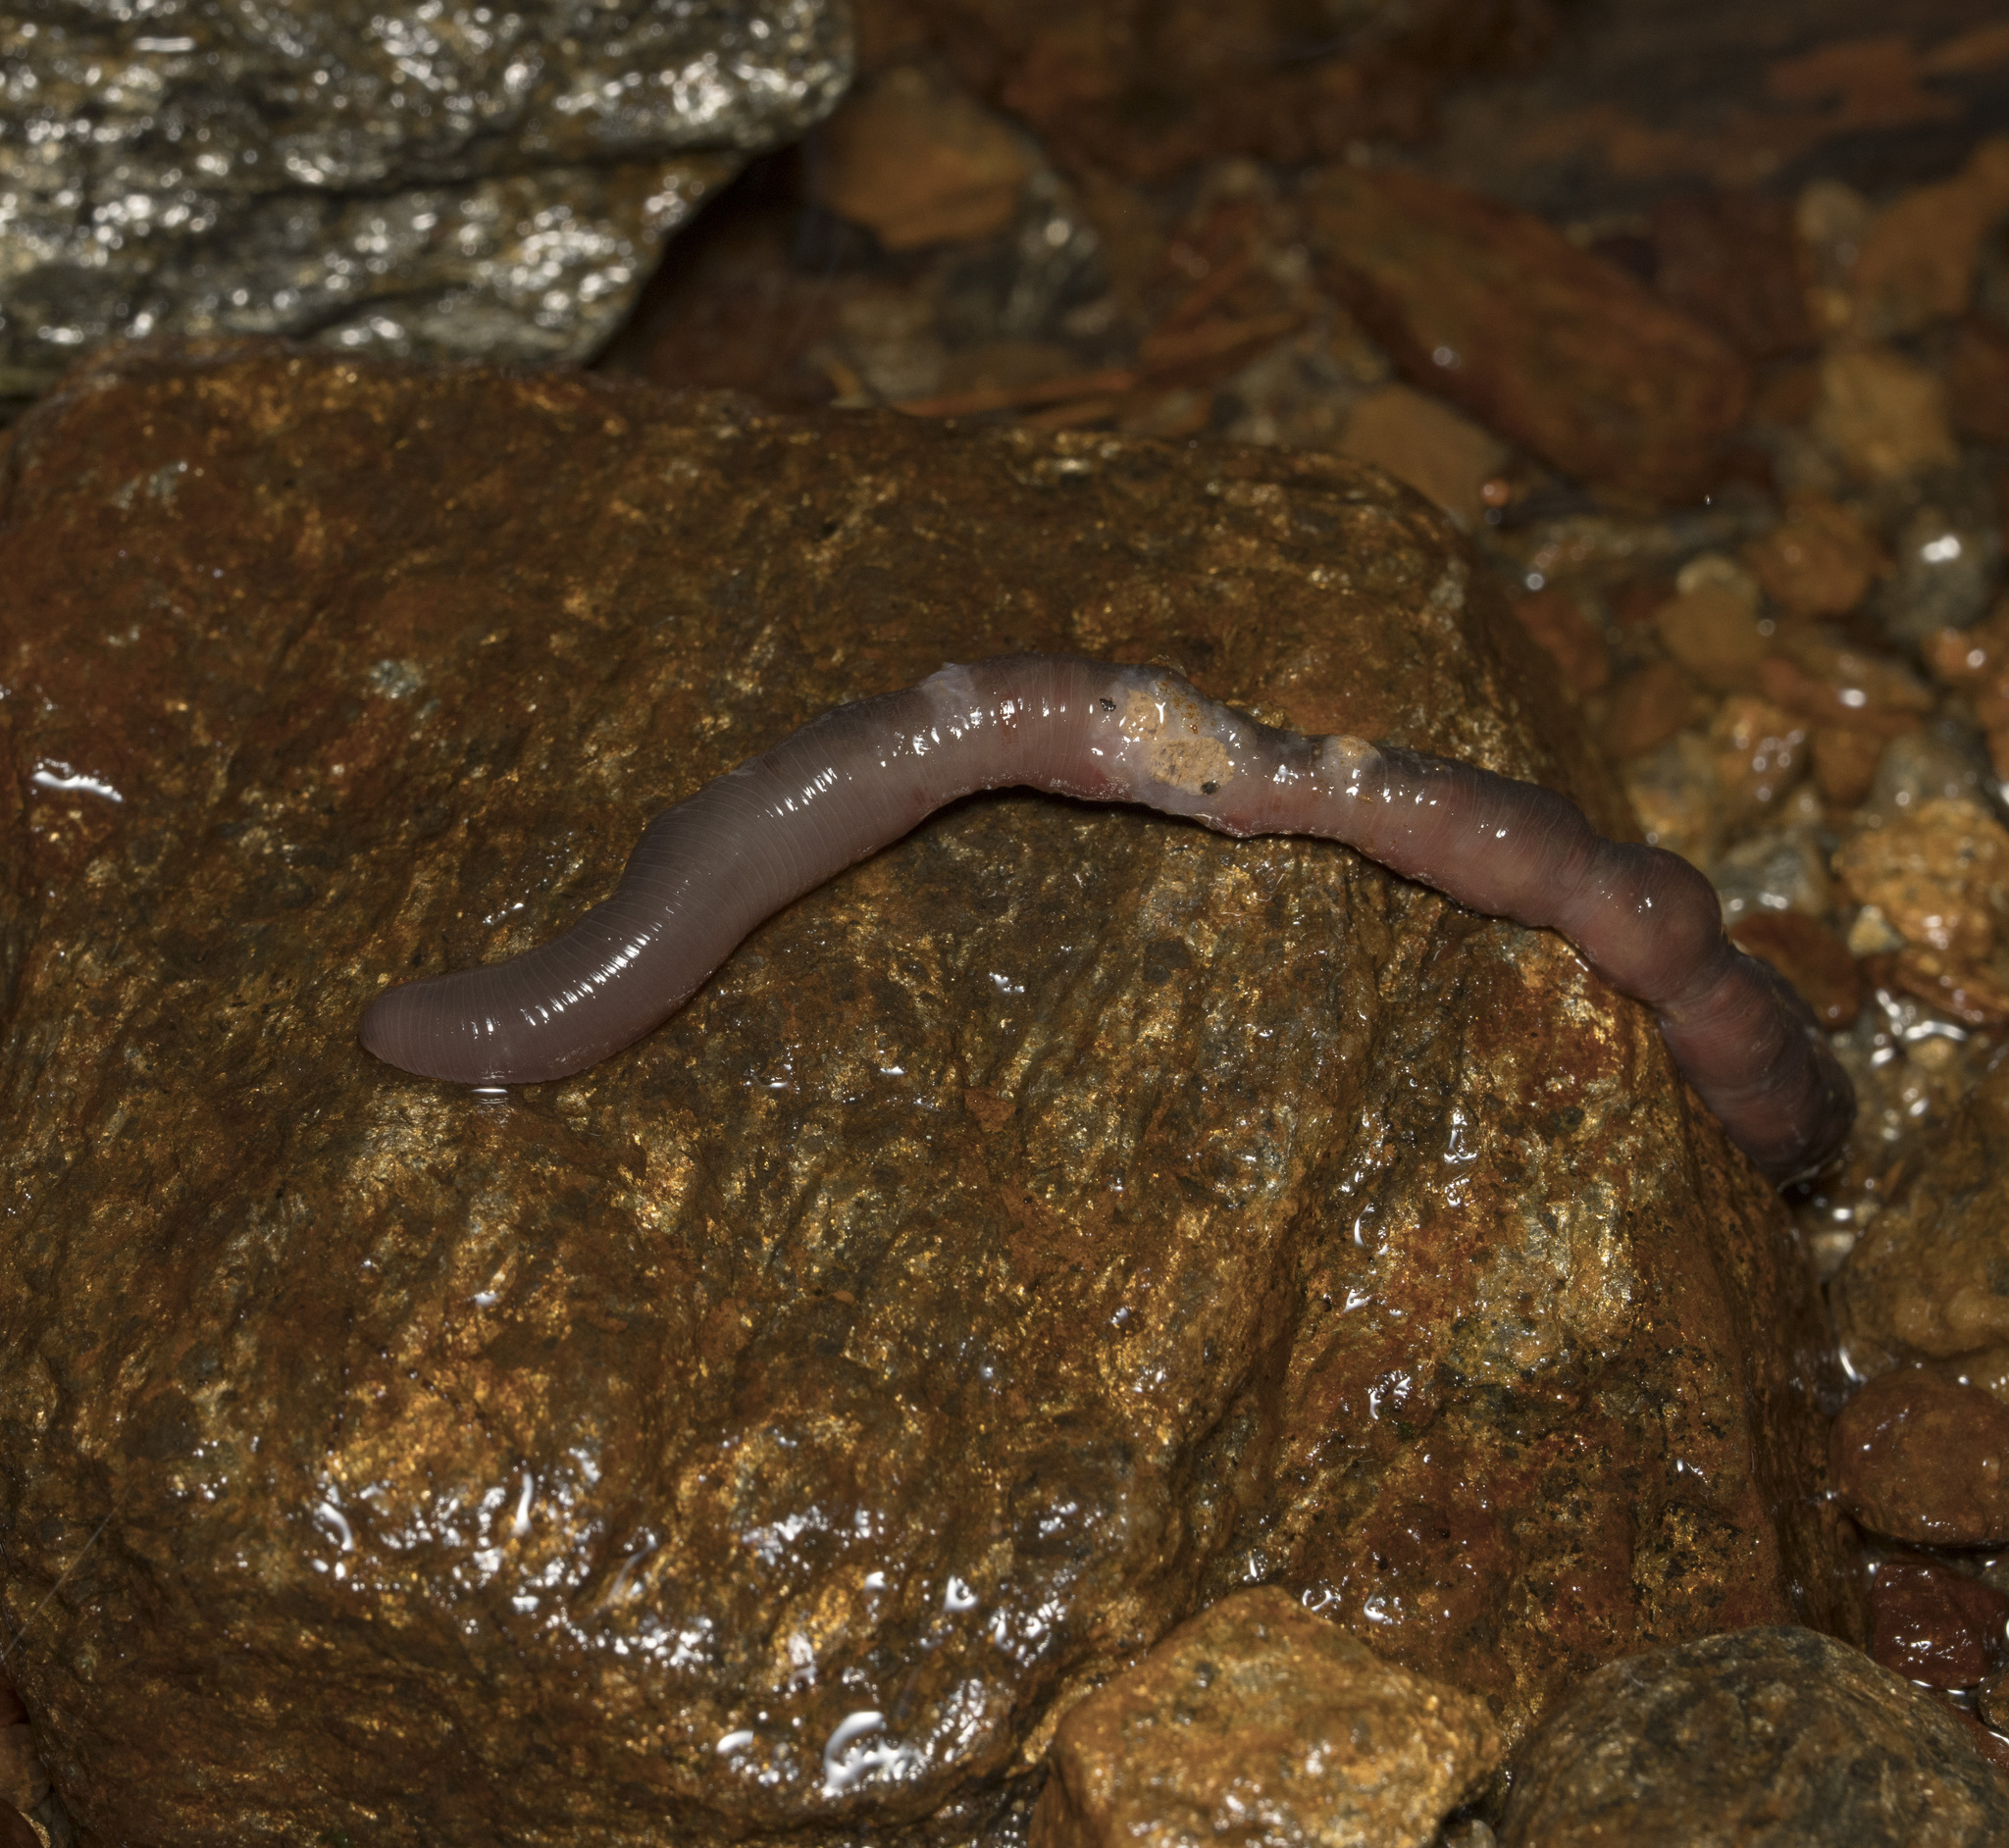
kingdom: Animalia
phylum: Annelida
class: Clitellata
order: Arhynchobdellida
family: Americobdellidae
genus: Americobdella
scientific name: Americobdella valdiviana
